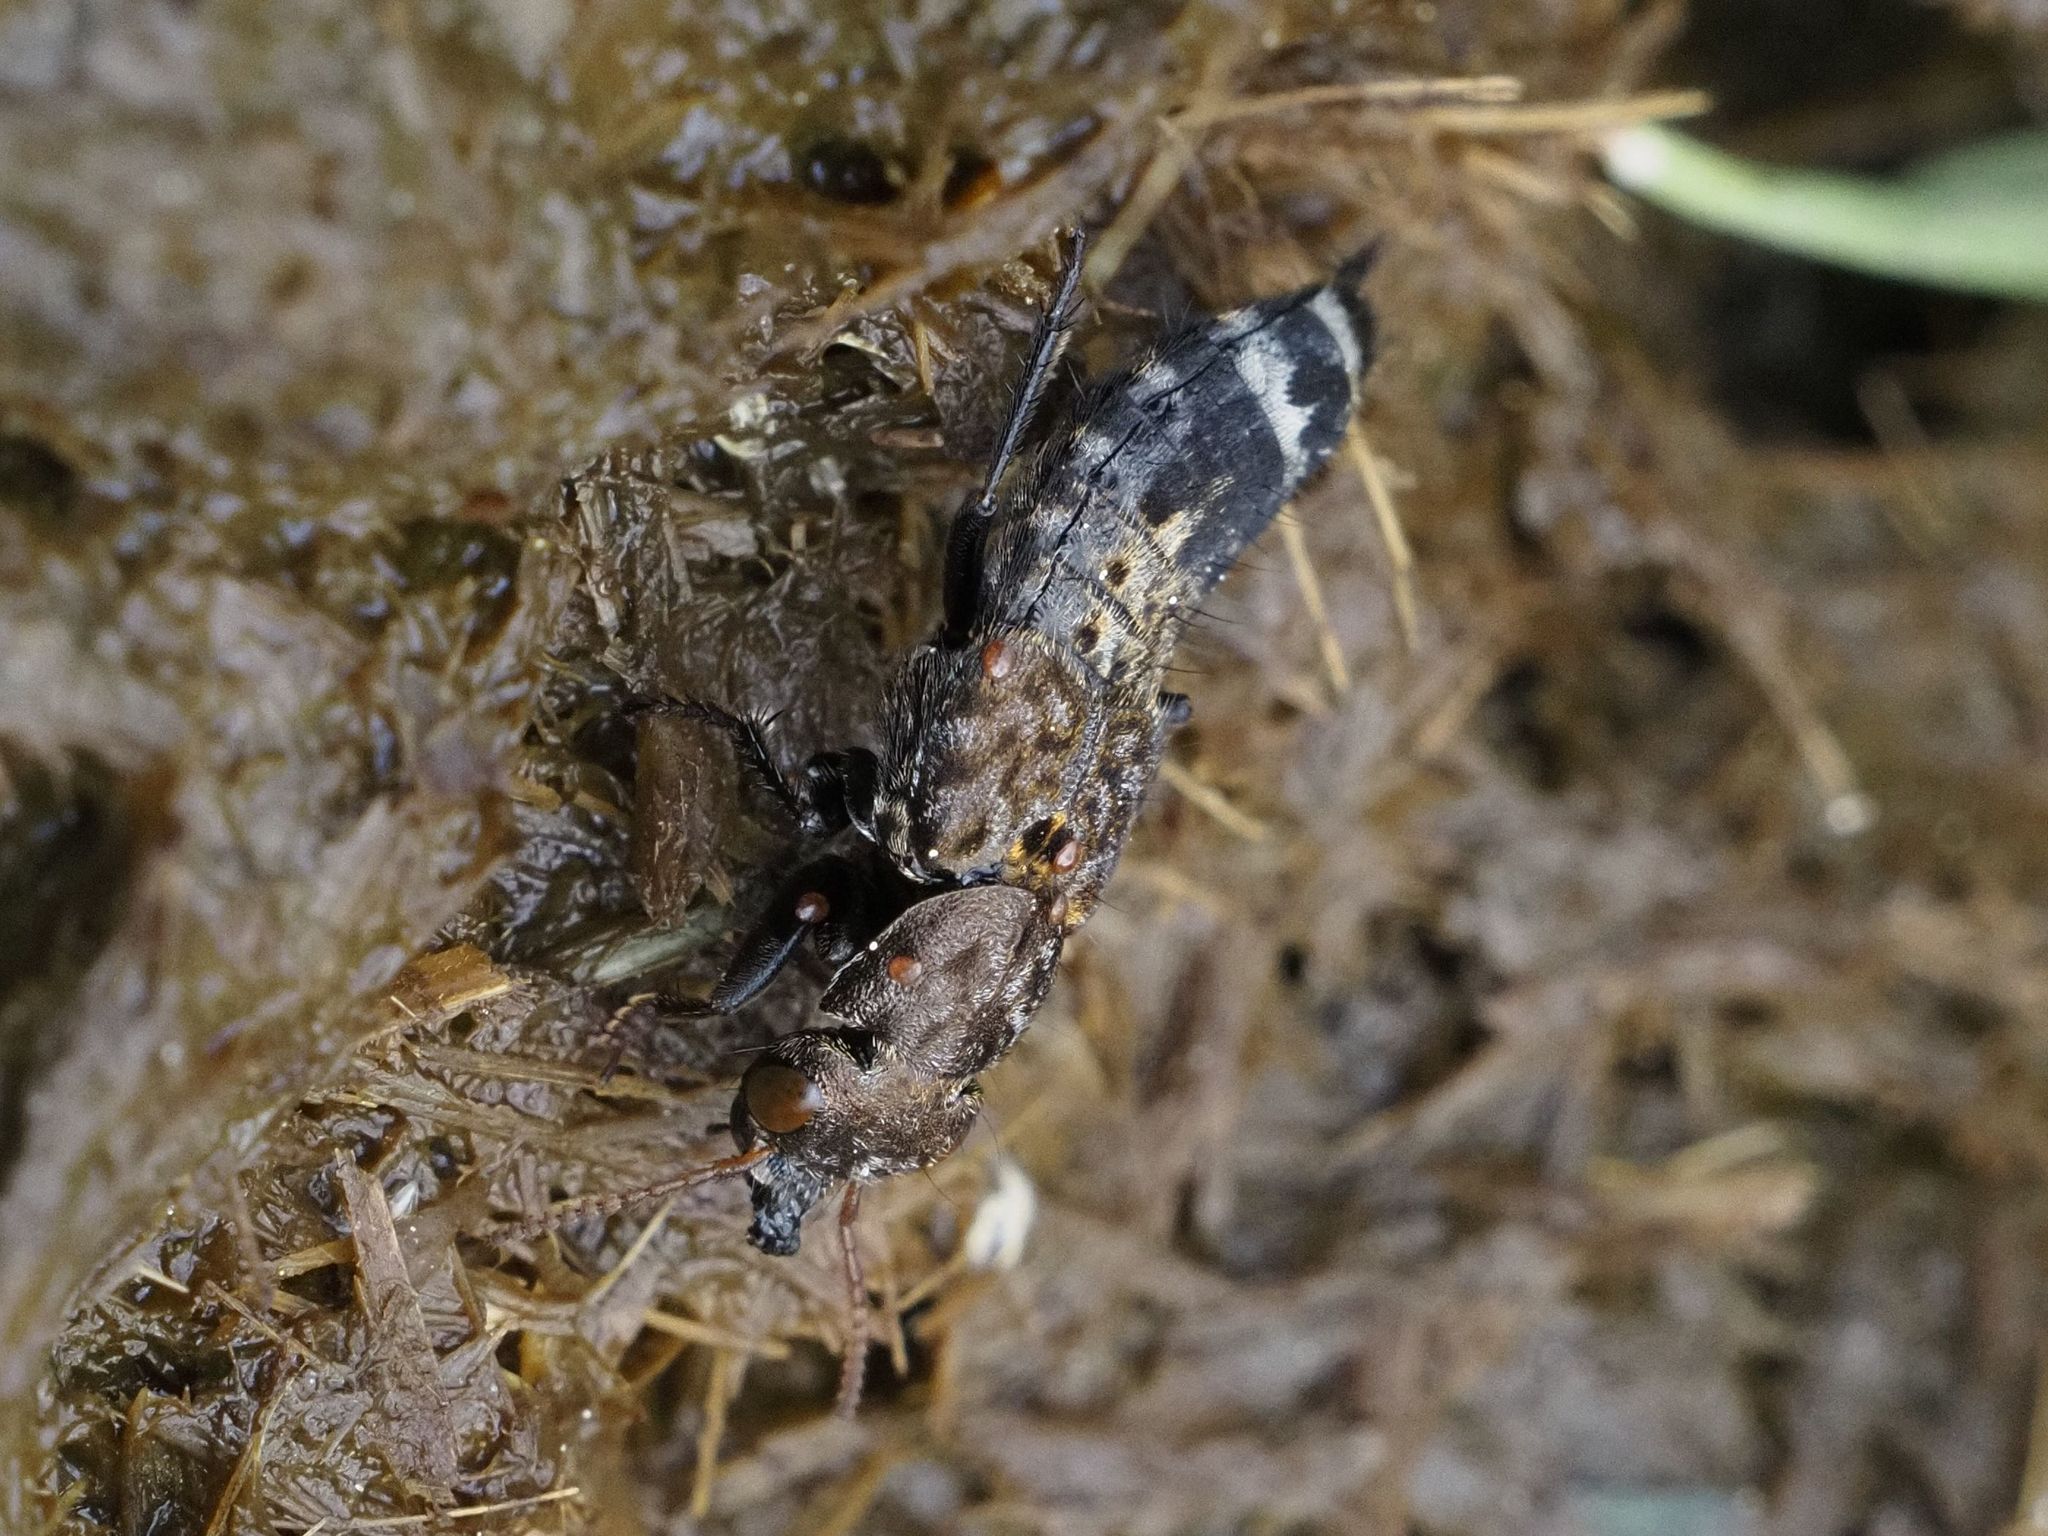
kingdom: Animalia
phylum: Arthropoda
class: Insecta
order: Coleoptera
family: Staphylinidae
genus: Ontholestes
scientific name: Ontholestes murinus
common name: Staph beetle
